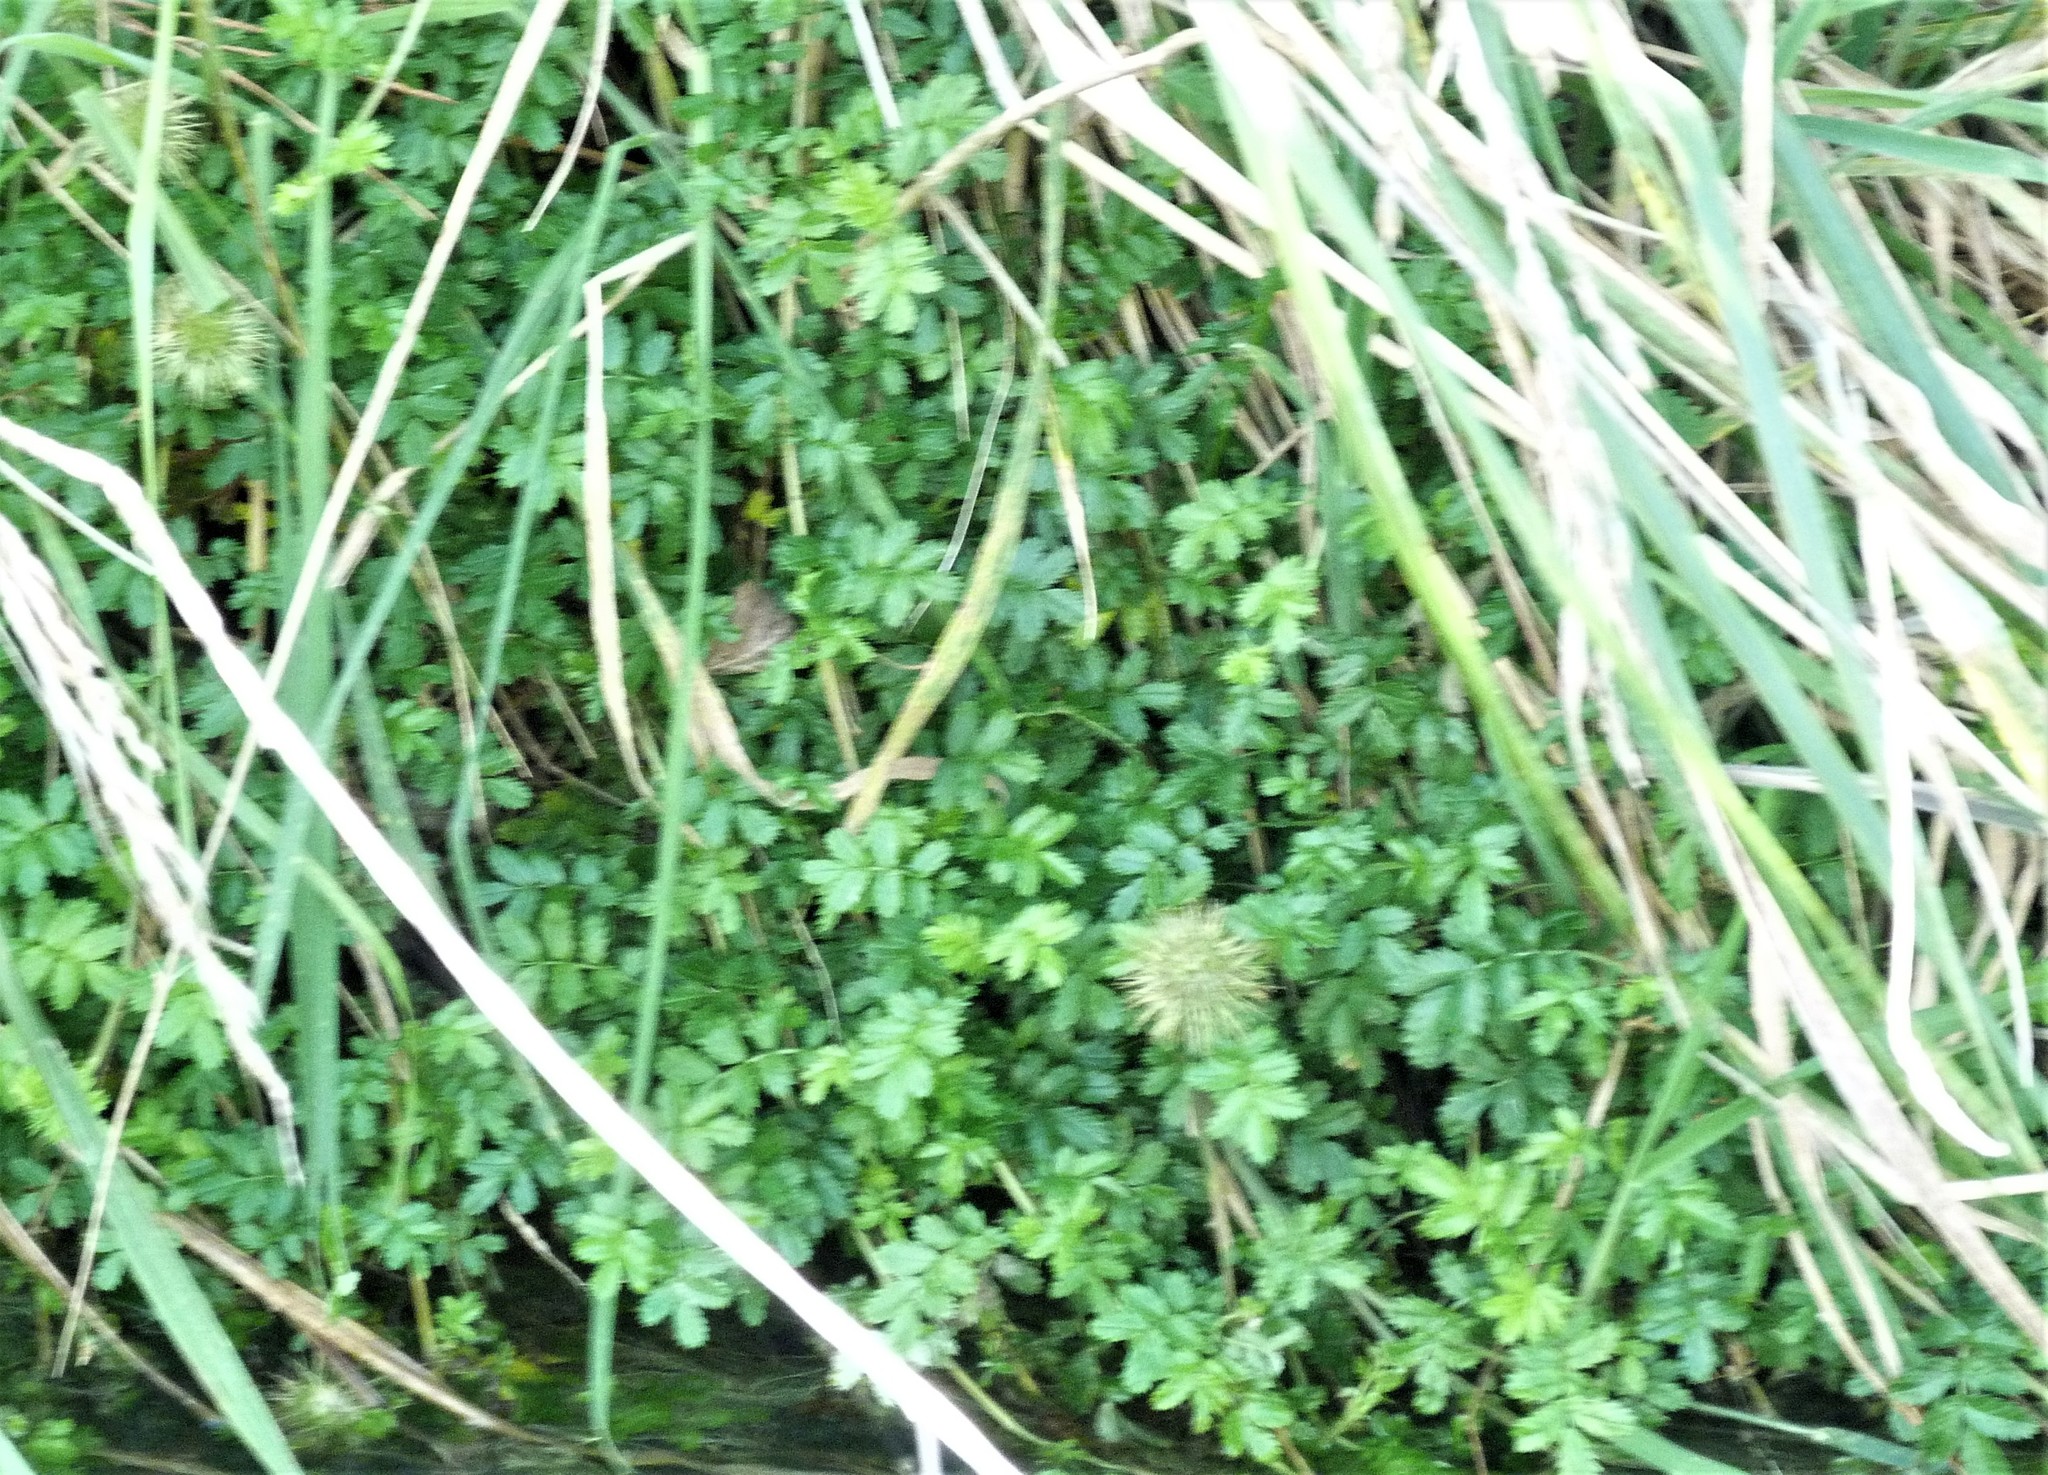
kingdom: Plantae
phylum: Tracheophyta
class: Magnoliopsida
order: Rosales
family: Rosaceae
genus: Acaena
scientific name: Acaena novae-zelandiae
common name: Pirri-pirri-bur
